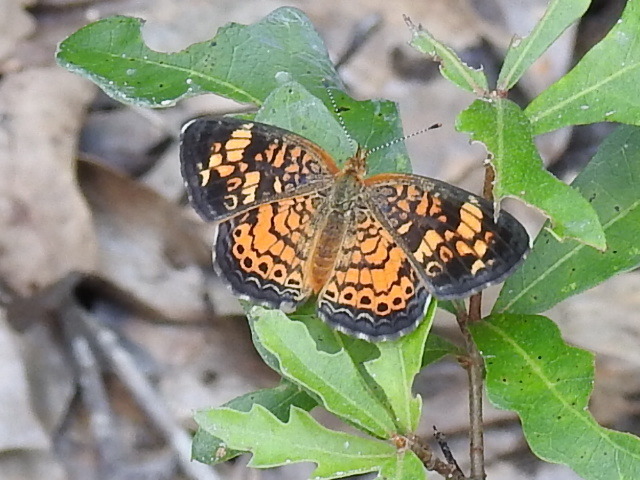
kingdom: Animalia
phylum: Arthropoda
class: Insecta
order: Lepidoptera
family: Nymphalidae
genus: Phyciodes
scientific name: Phyciodes tharos
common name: Pearl crescent
